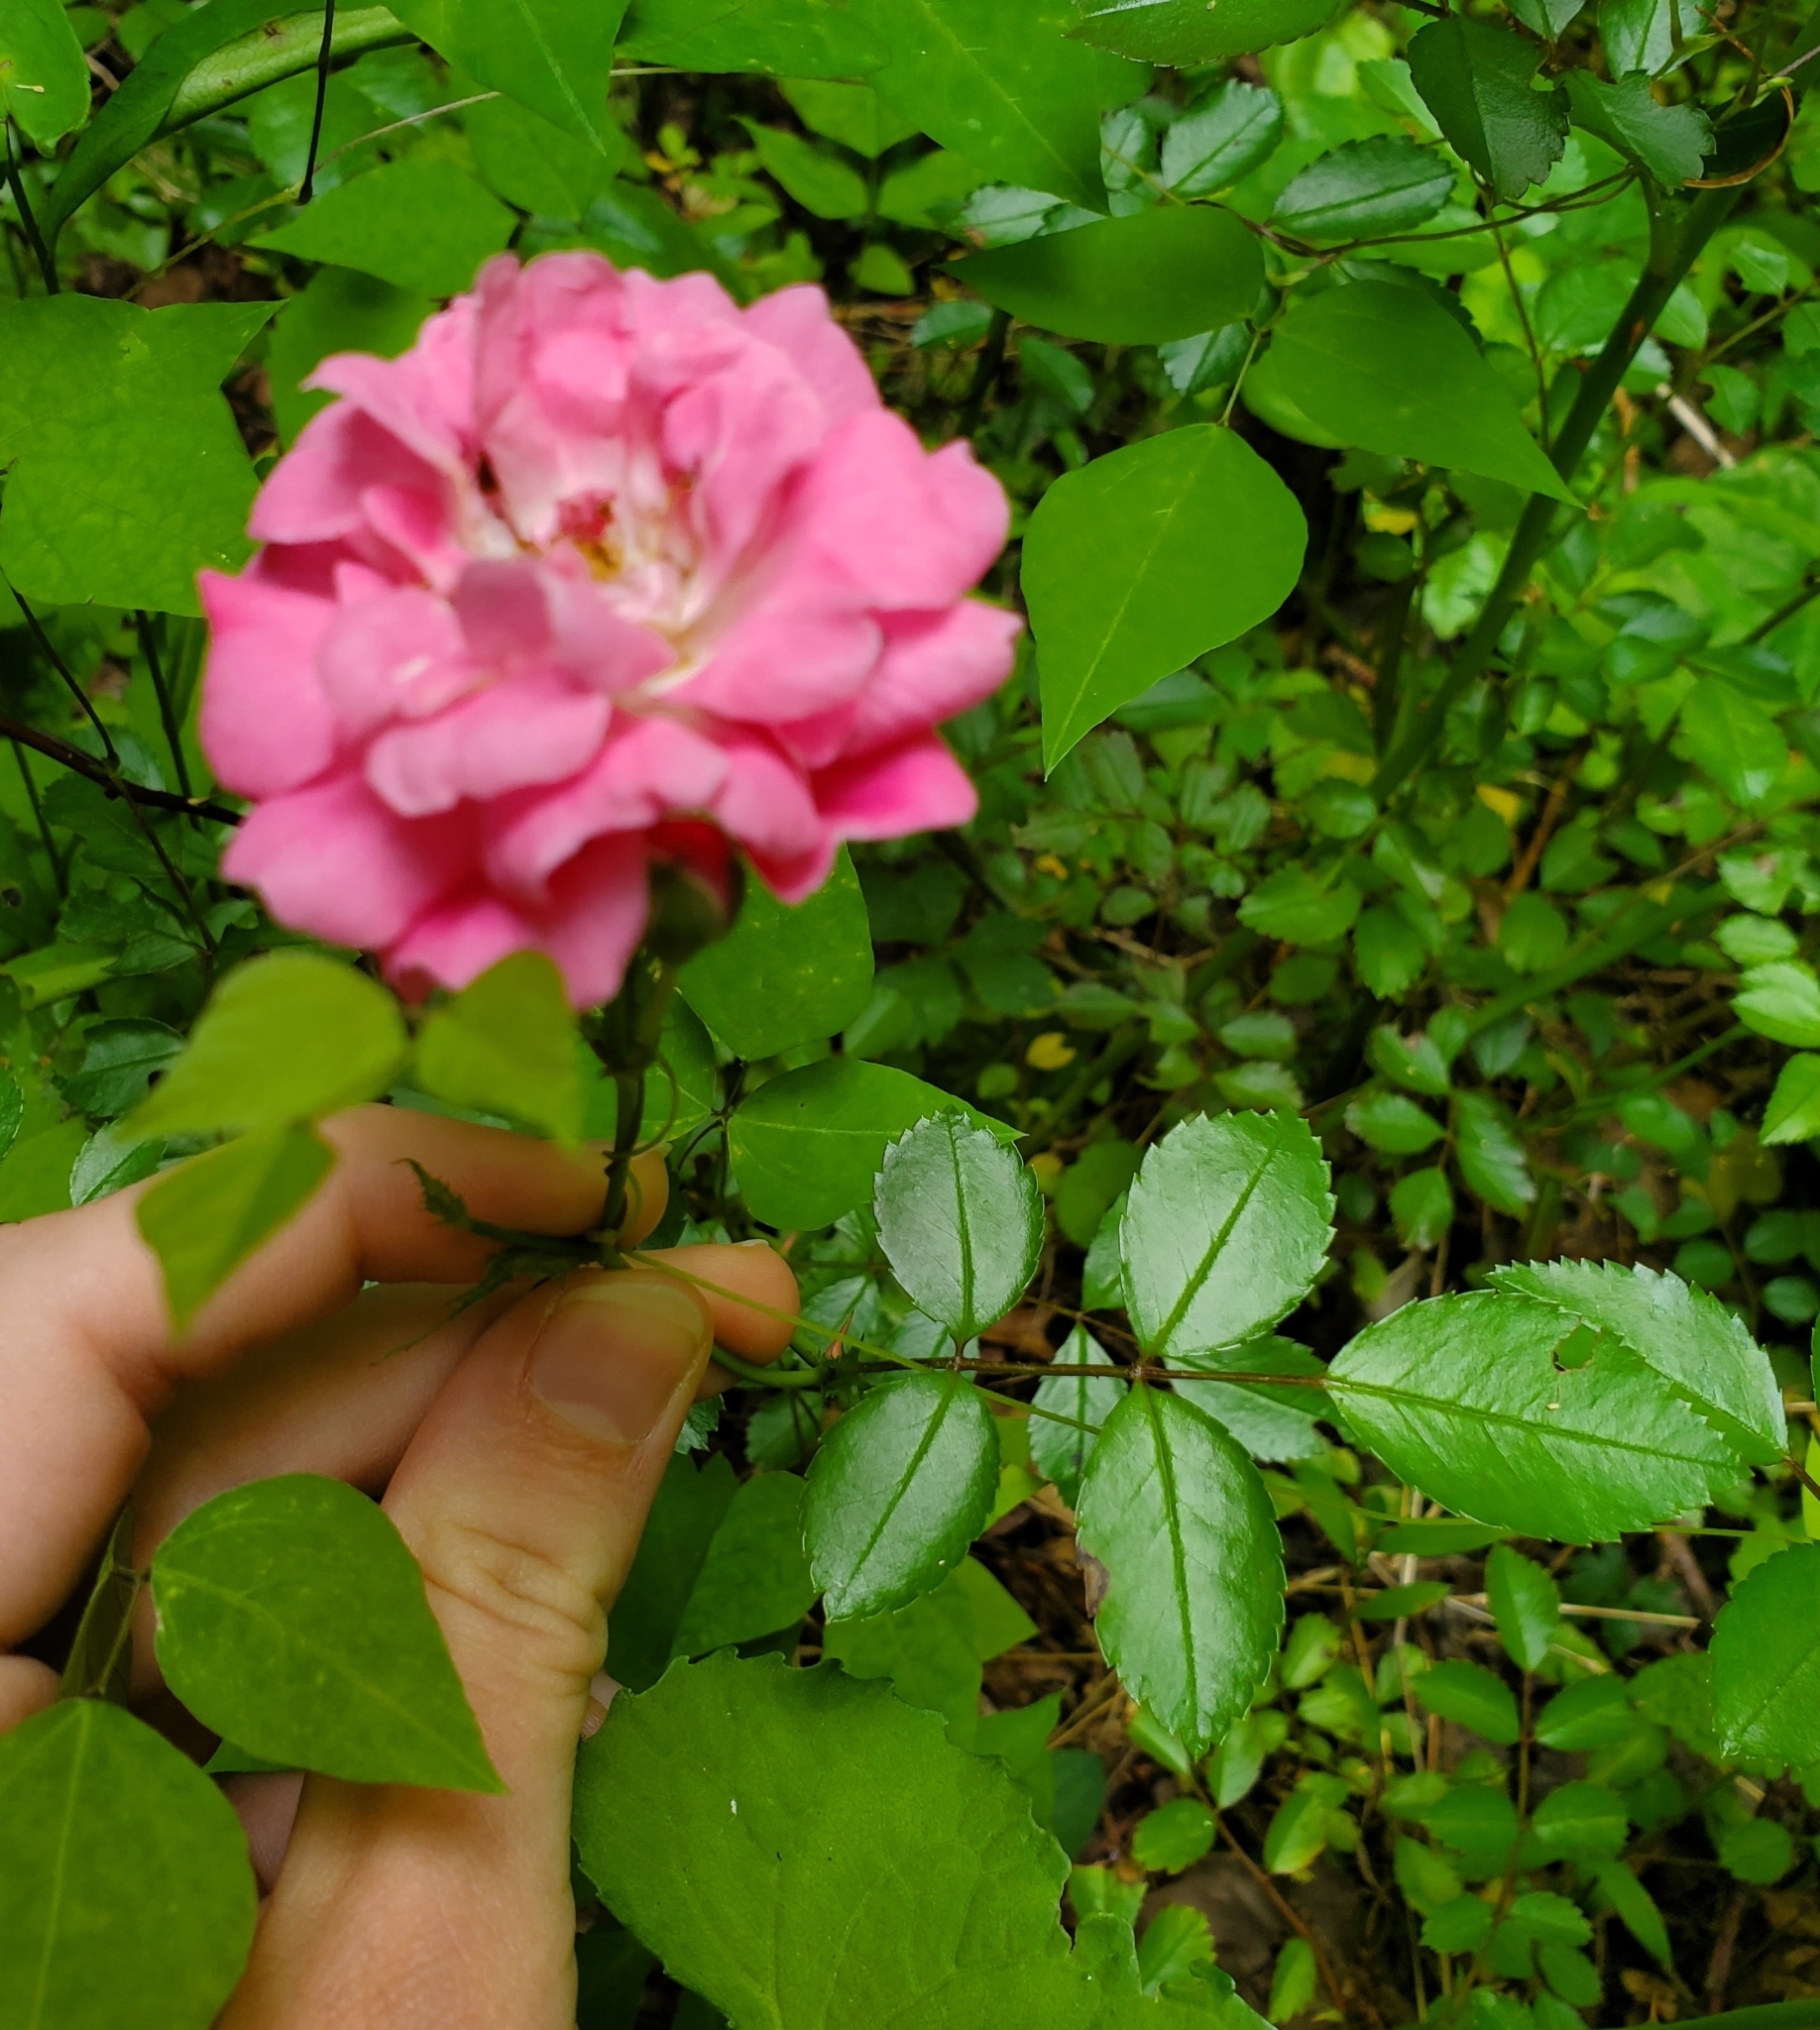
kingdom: Plantae
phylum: Tracheophyta
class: Magnoliopsida
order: Rosales
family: Rosaceae
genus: Rosa
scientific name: Rosa
